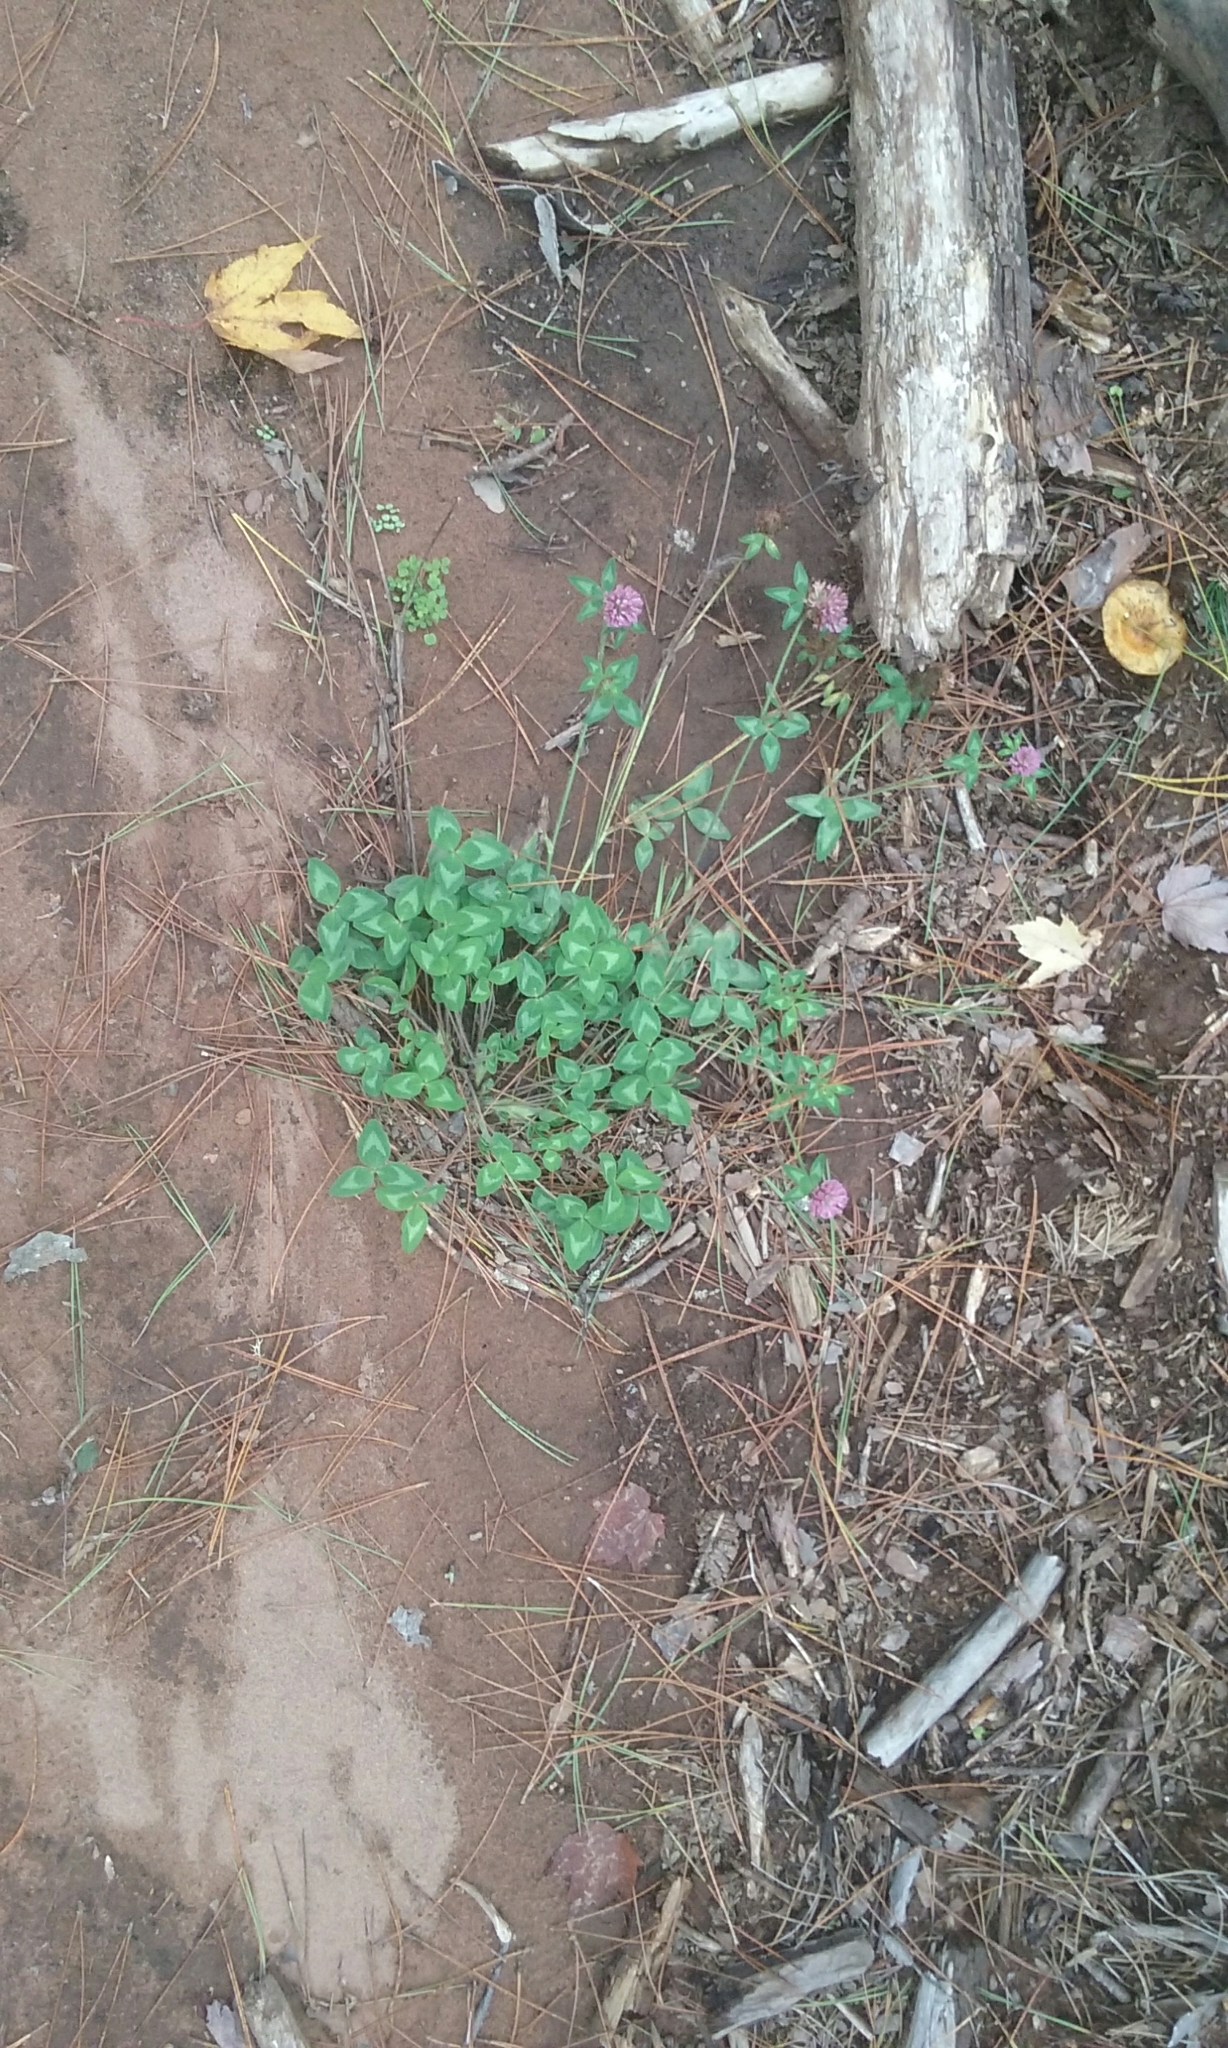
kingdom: Plantae
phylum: Tracheophyta
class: Magnoliopsida
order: Fabales
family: Fabaceae
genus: Trifolium
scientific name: Trifolium pratense
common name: Red clover
